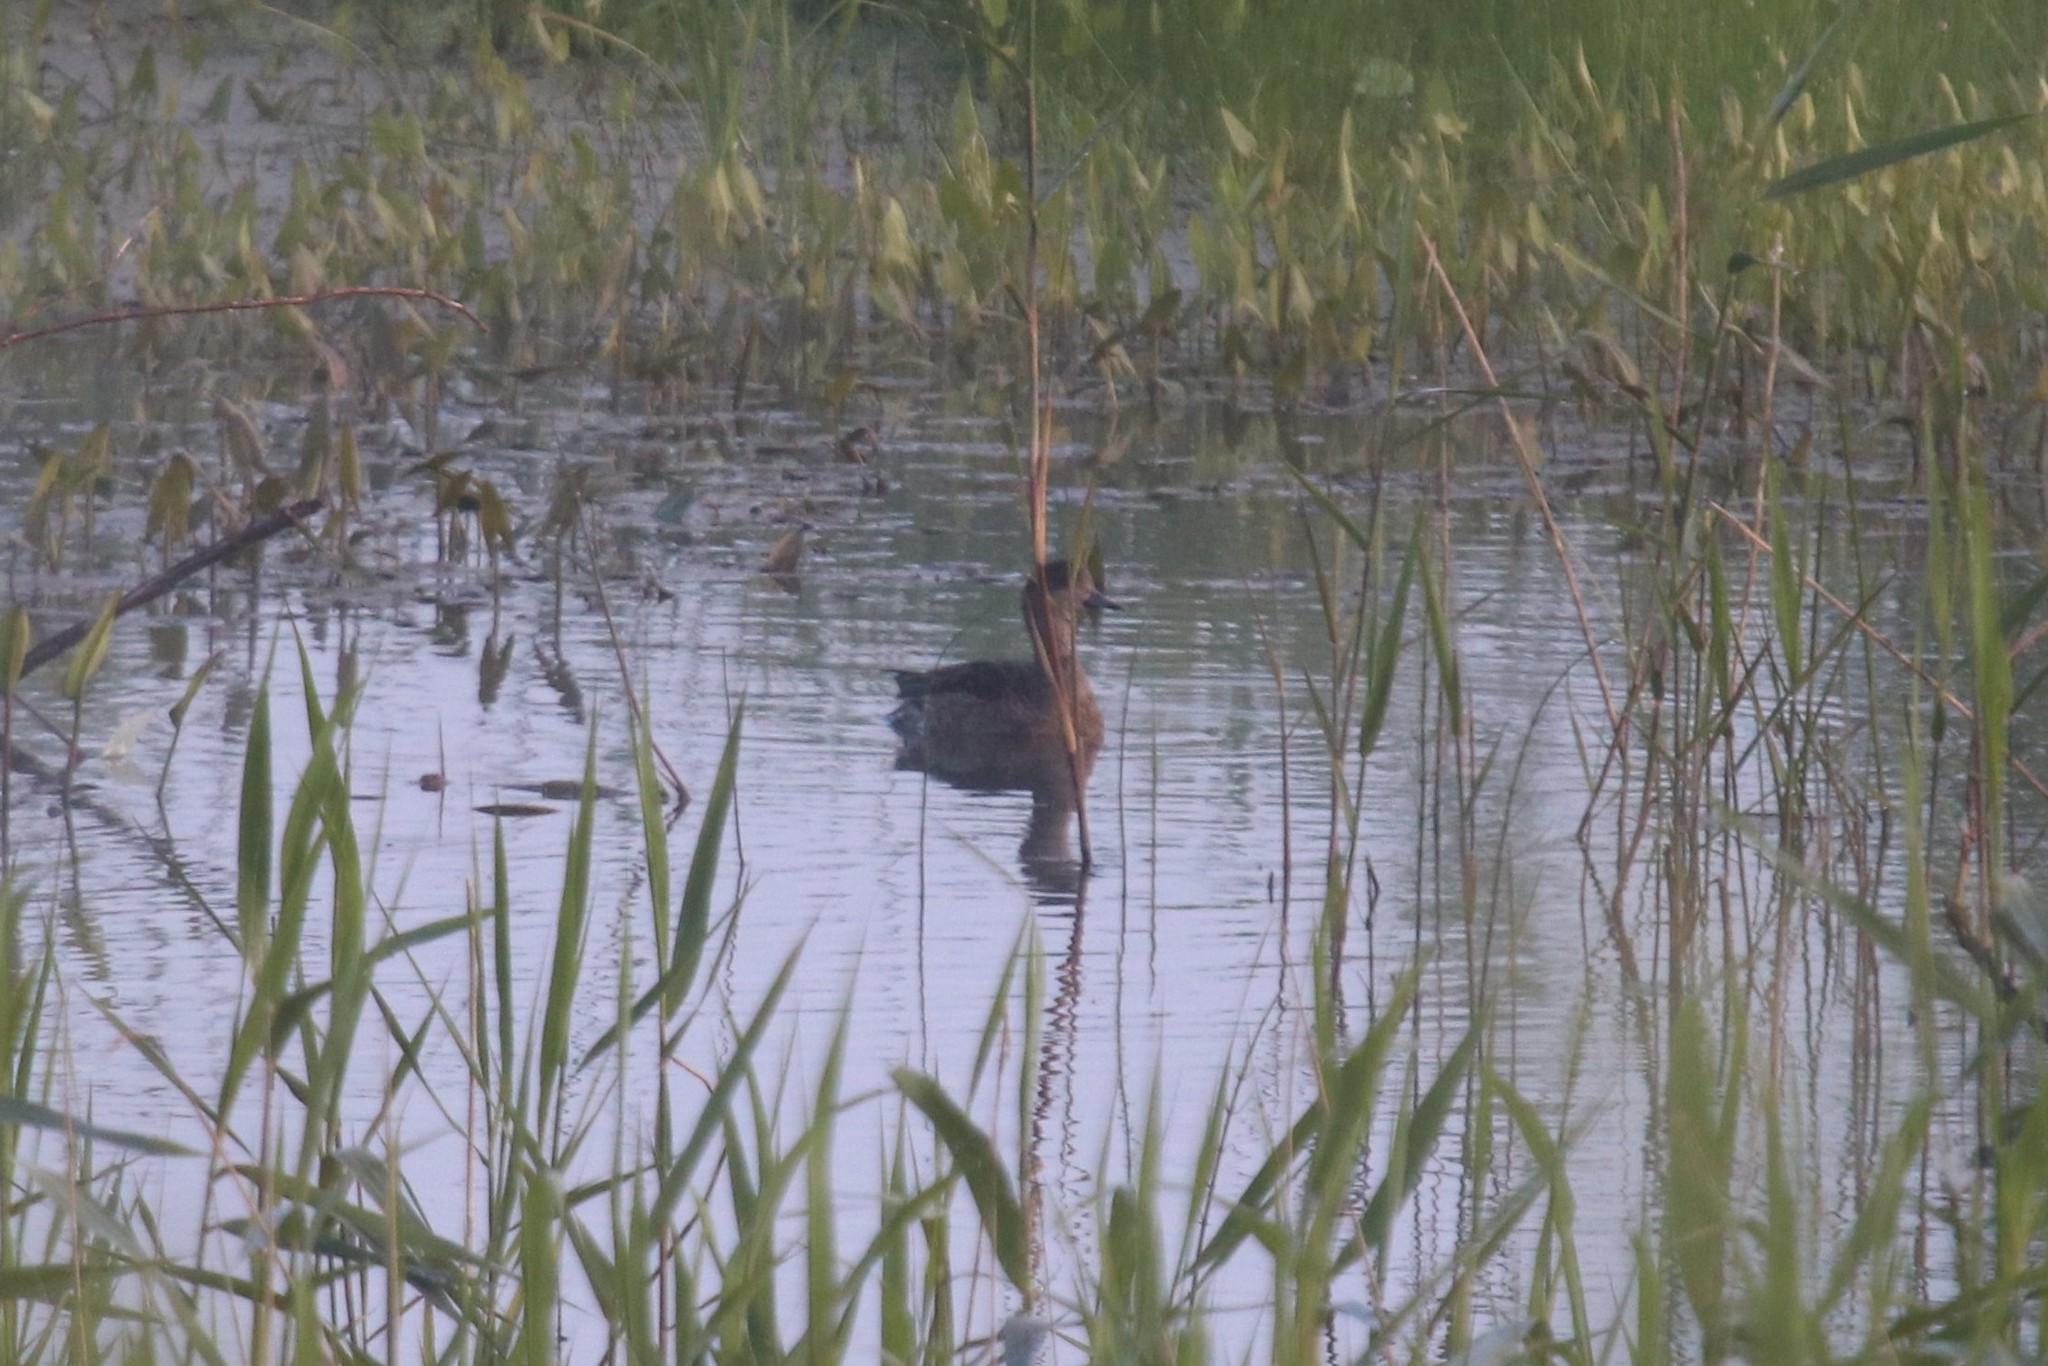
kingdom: Animalia
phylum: Chordata
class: Aves
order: Anseriformes
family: Anatidae
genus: Mareca
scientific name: Mareca penelope
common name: Eurasian wigeon
